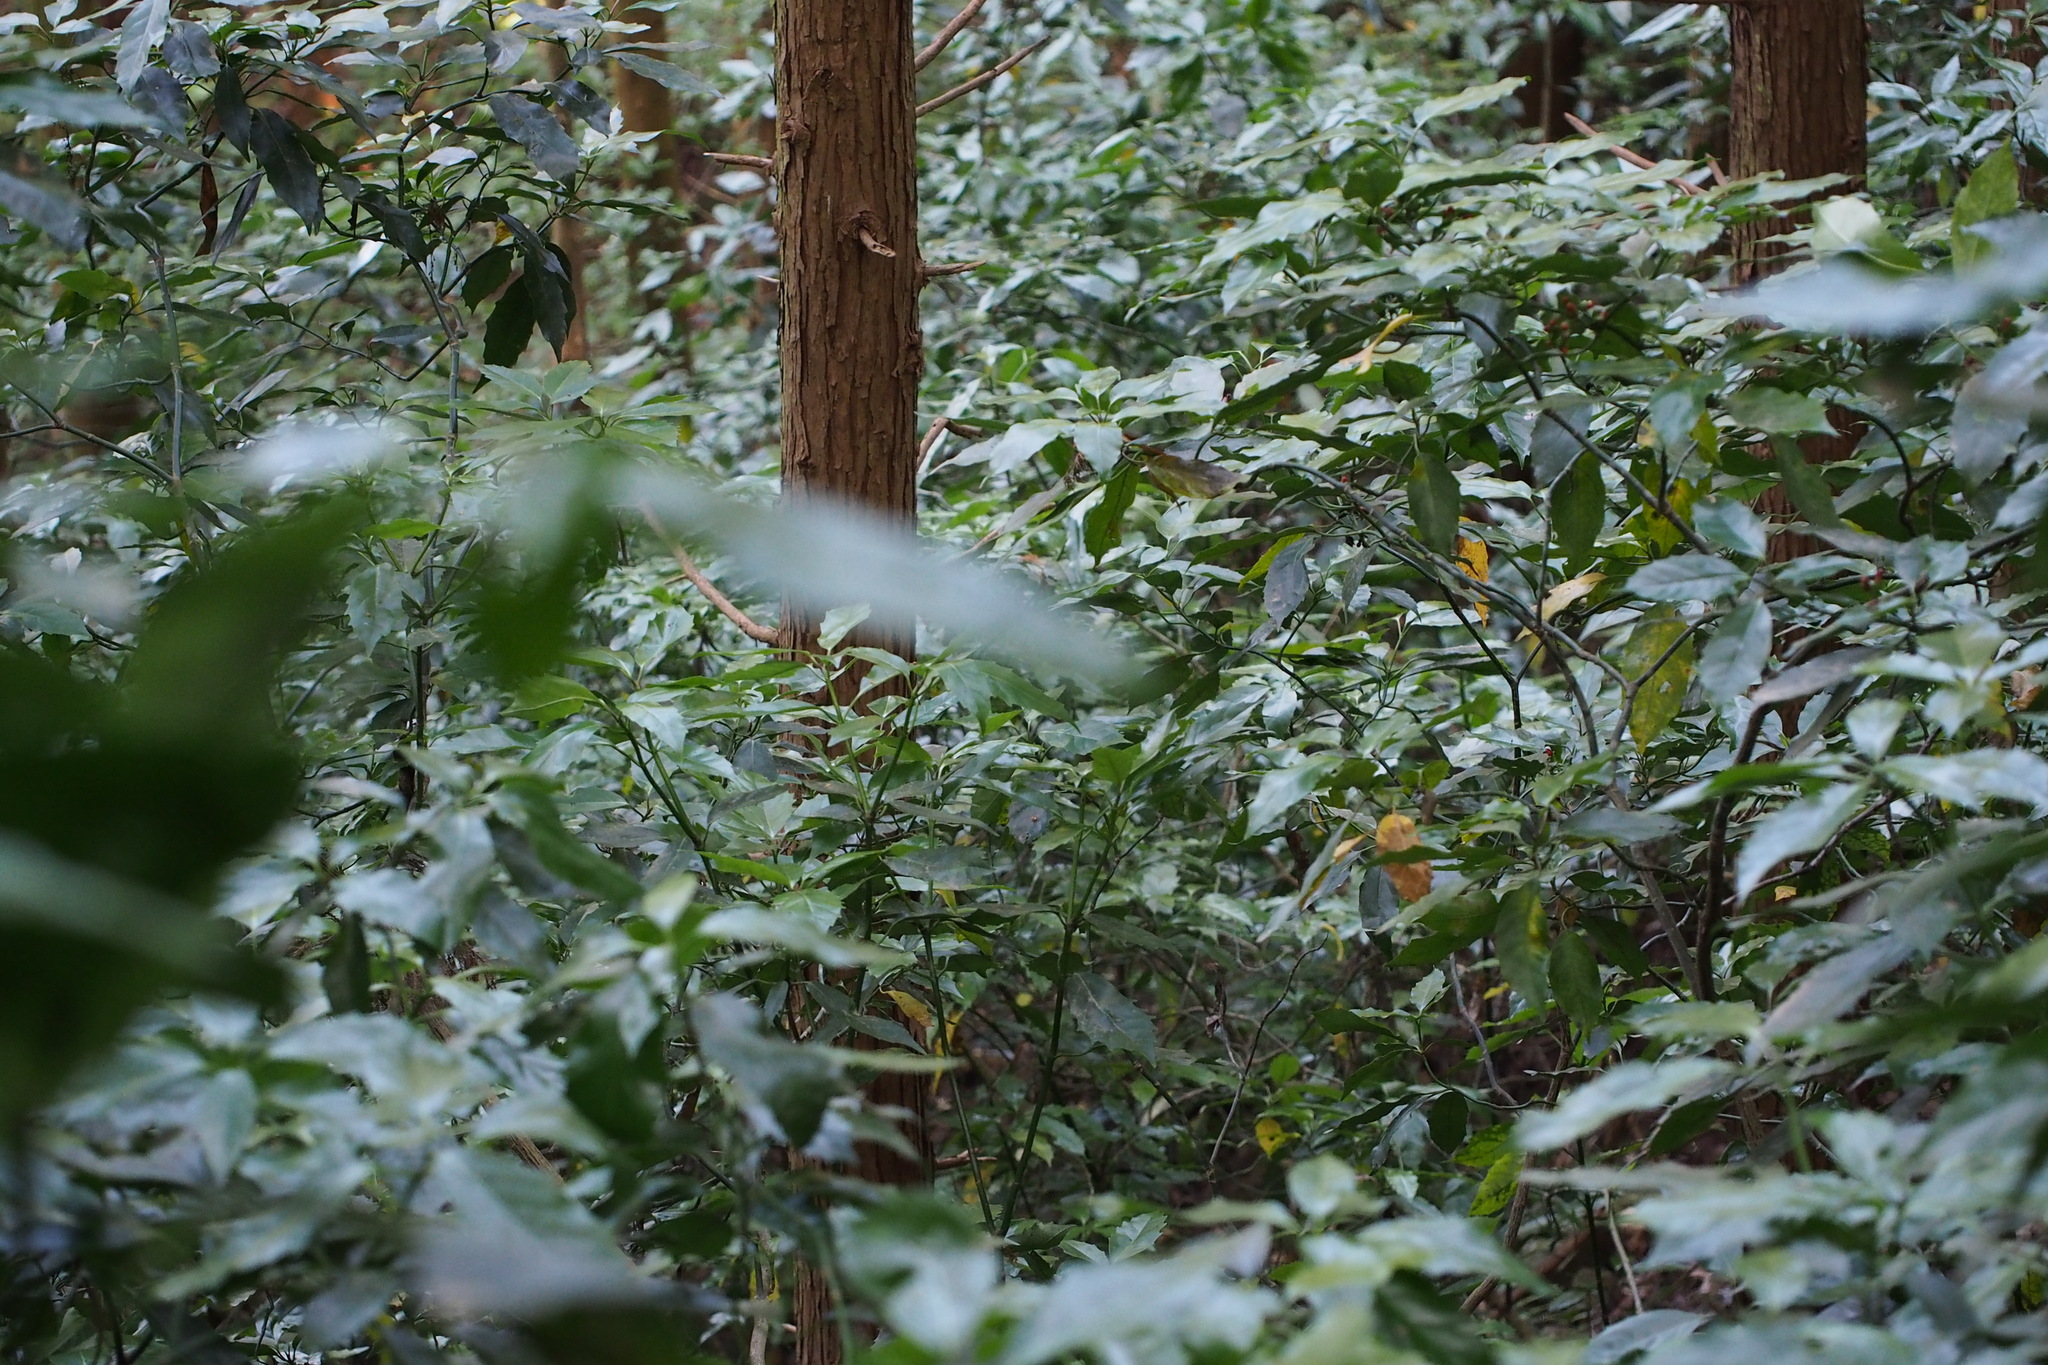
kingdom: Plantae
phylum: Tracheophyta
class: Magnoliopsida
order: Garryales
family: Garryaceae
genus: Aucuba
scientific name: Aucuba japonica
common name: Spotted-laurel
